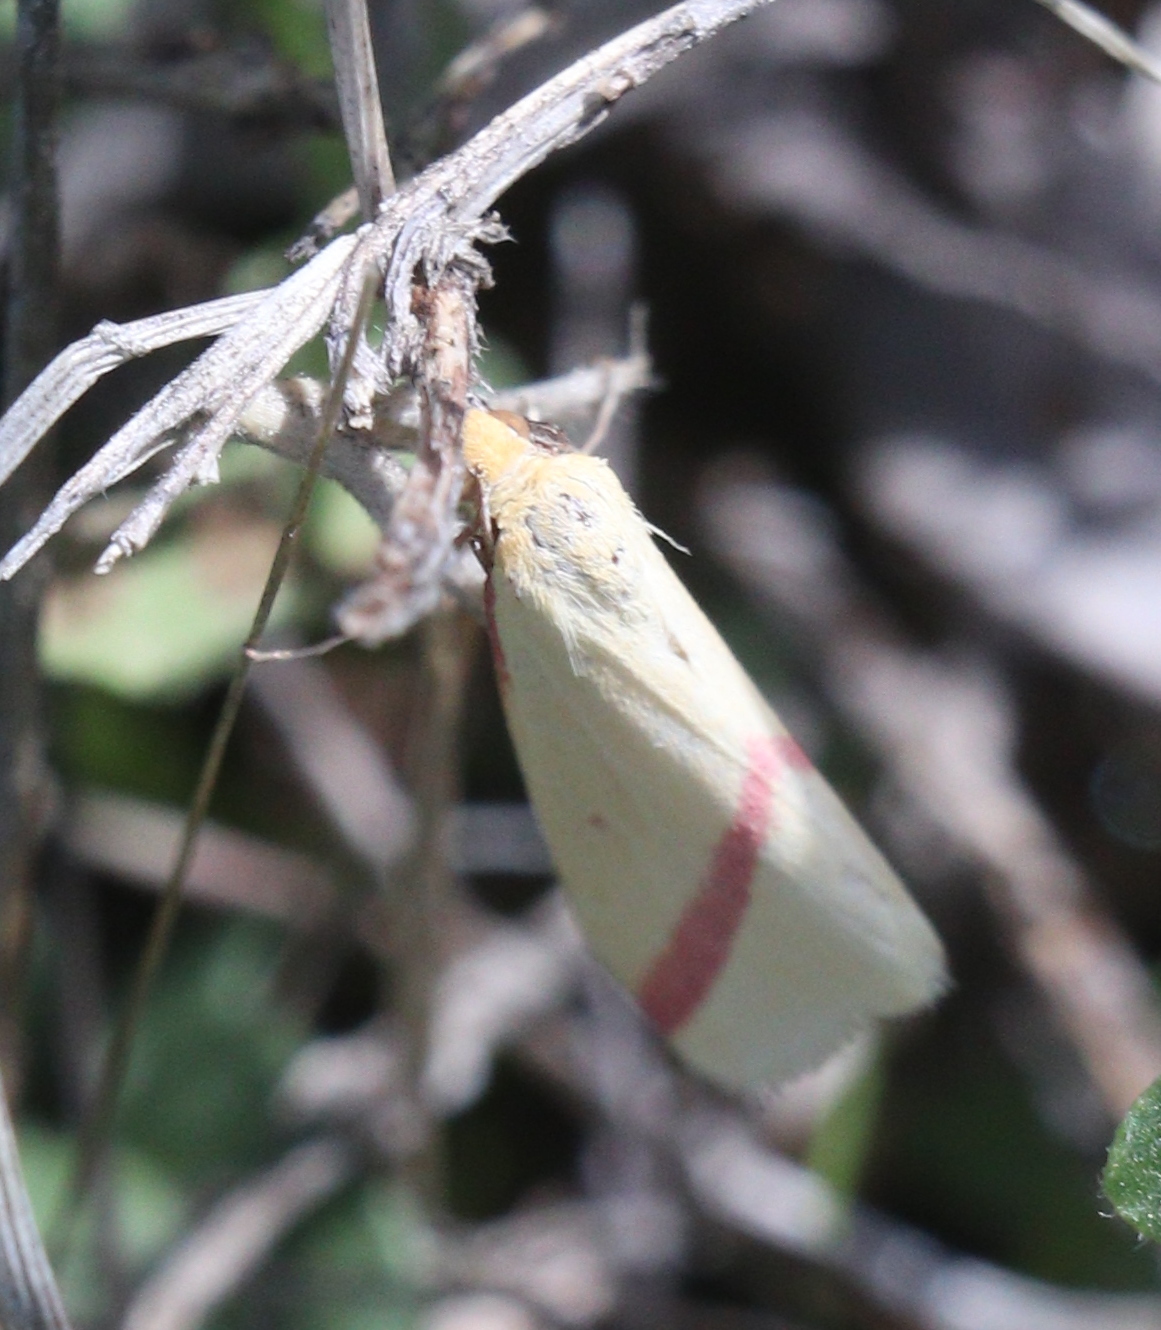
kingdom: Animalia
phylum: Arthropoda
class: Insecta
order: Lepidoptera
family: Geometridae
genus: Rhodometra
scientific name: Rhodometra sacraria
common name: Vestal
